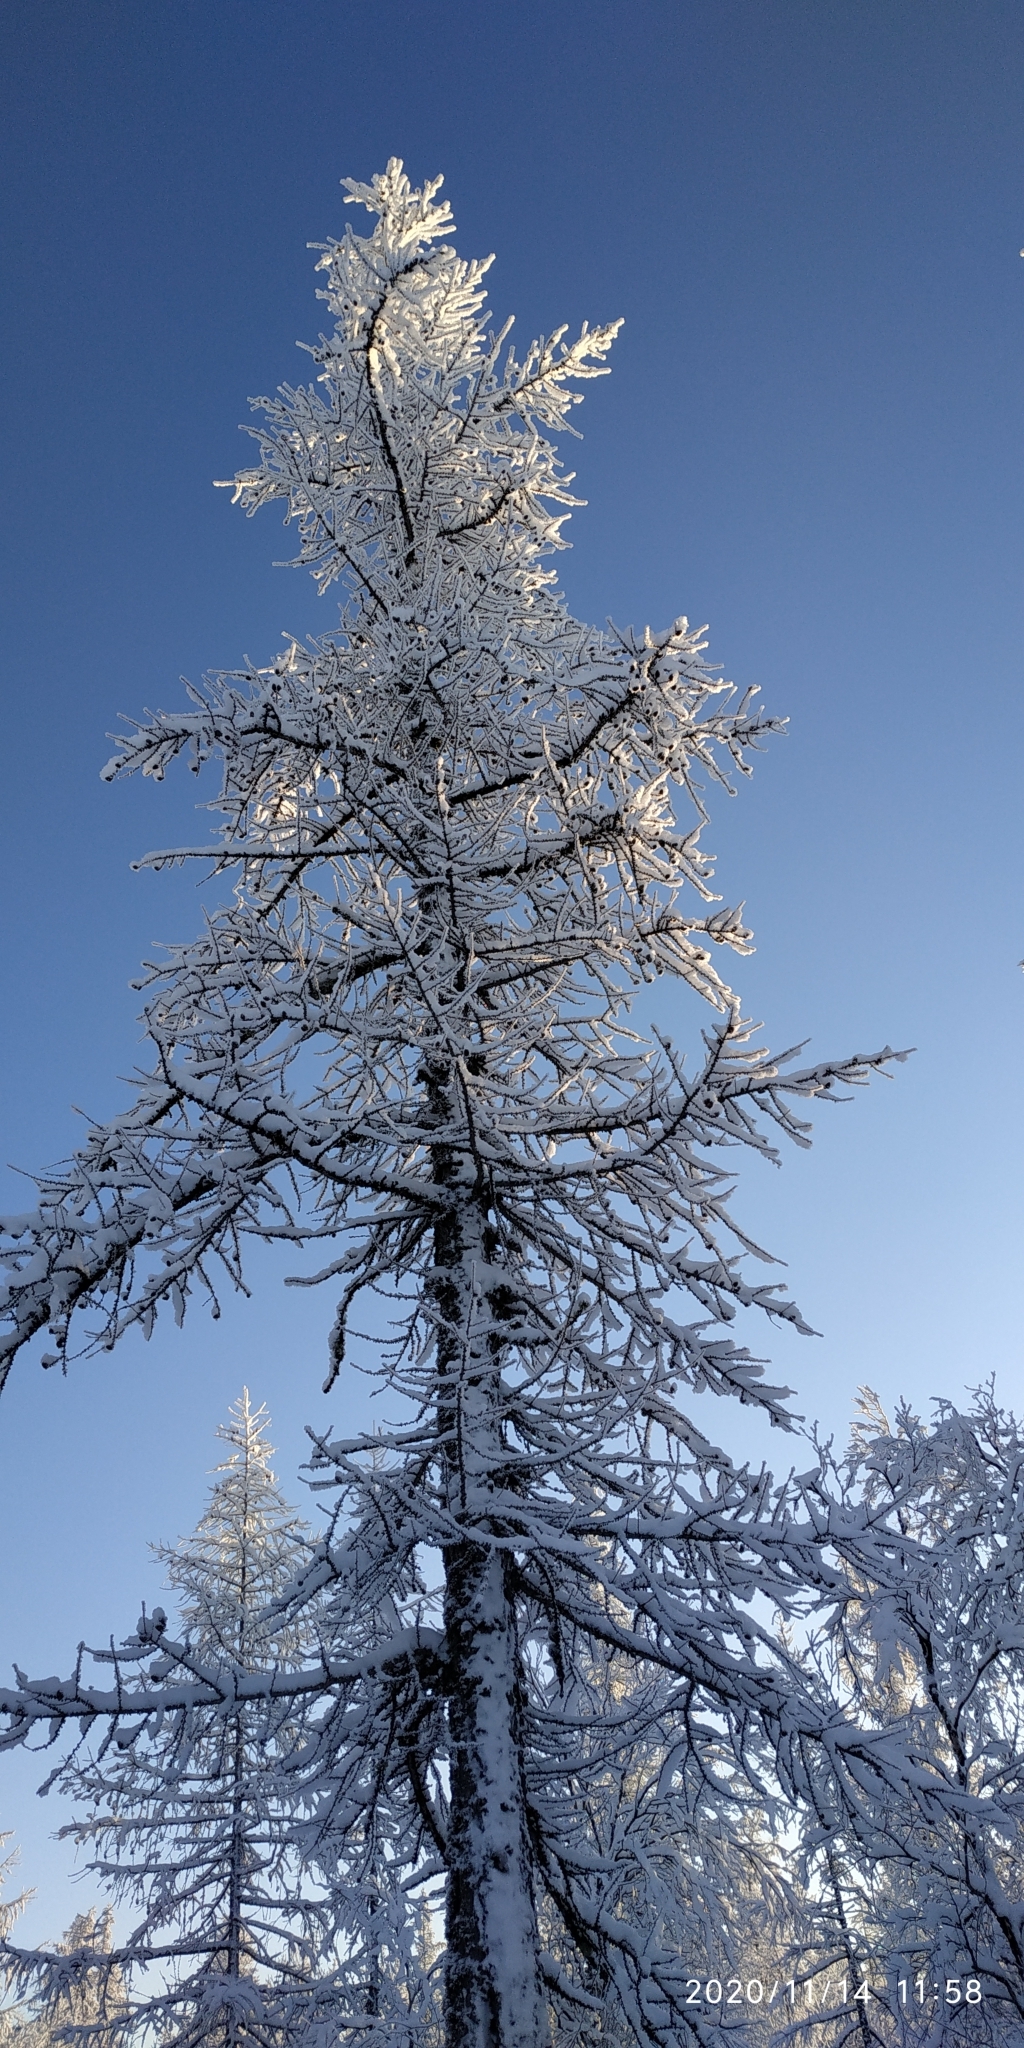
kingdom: Plantae
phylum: Tracheophyta
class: Pinopsida
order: Pinales
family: Pinaceae
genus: Larix
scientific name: Larix sibirica
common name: Siberian larch
